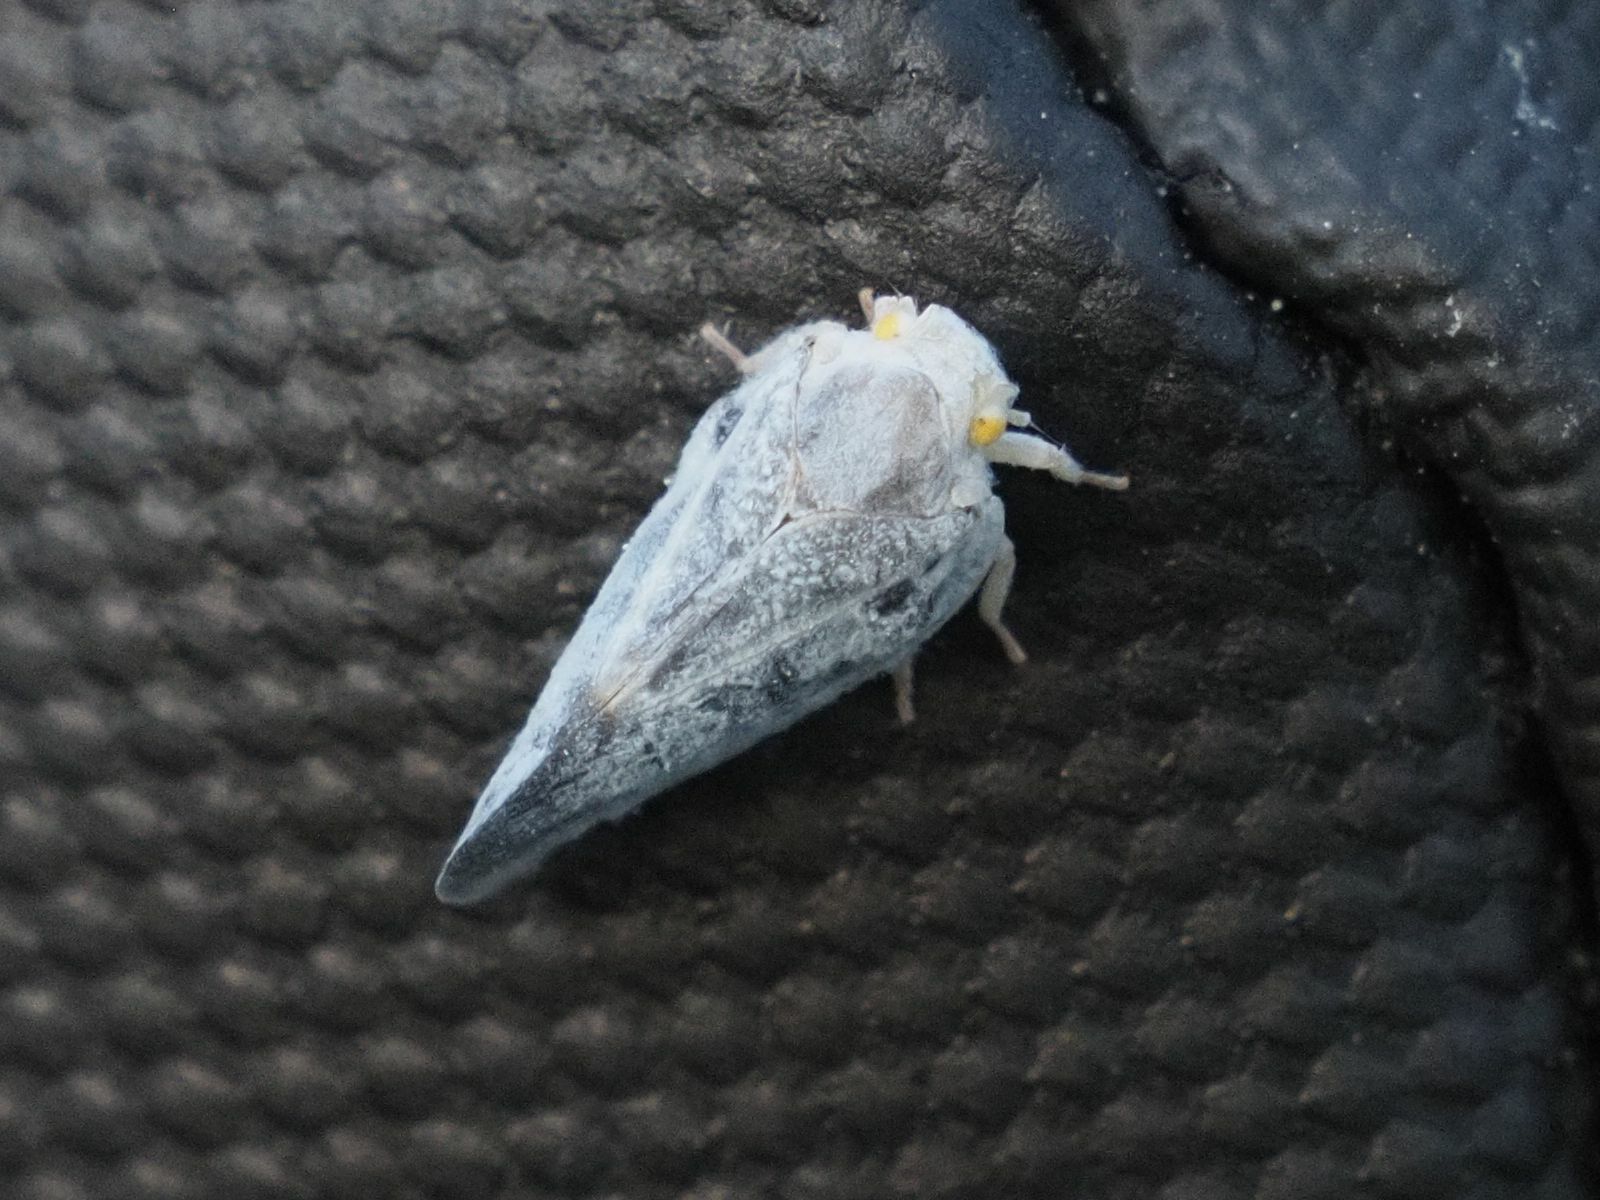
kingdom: Animalia
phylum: Arthropoda
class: Insecta
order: Hemiptera
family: Flatidae
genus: Metcalfa
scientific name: Metcalfa pruinosa
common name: Citrus flatid planthopper
